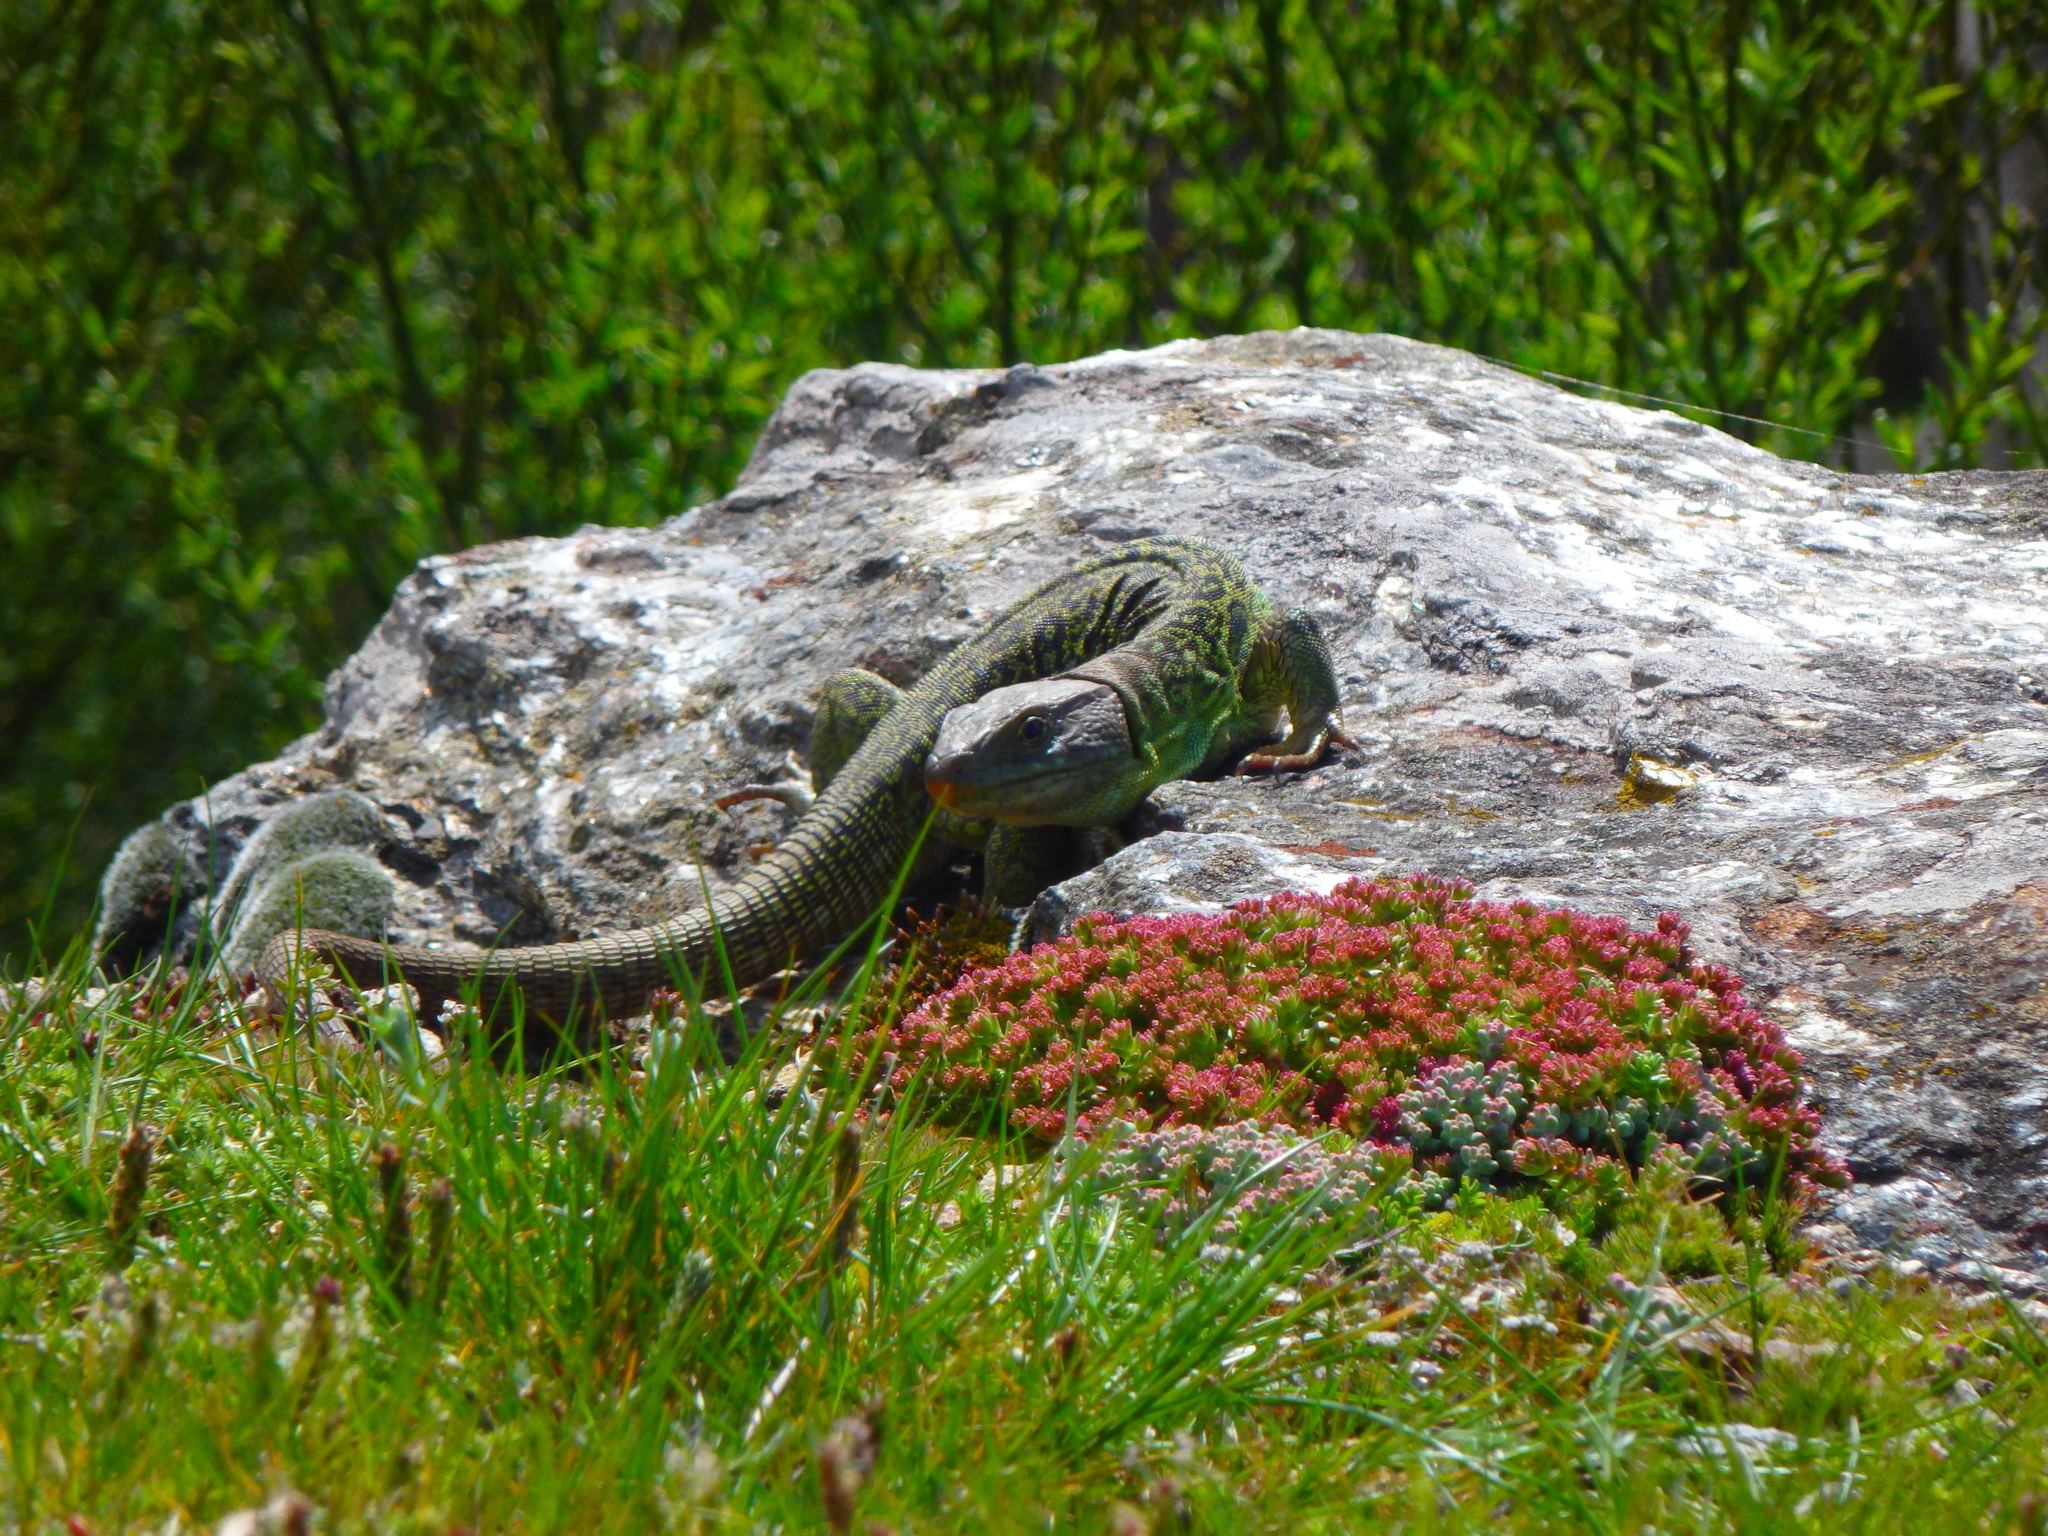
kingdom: Animalia
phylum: Chordata
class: Squamata
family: Lacertidae
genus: Timon
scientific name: Timon lepidus
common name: Ocellated lizard
